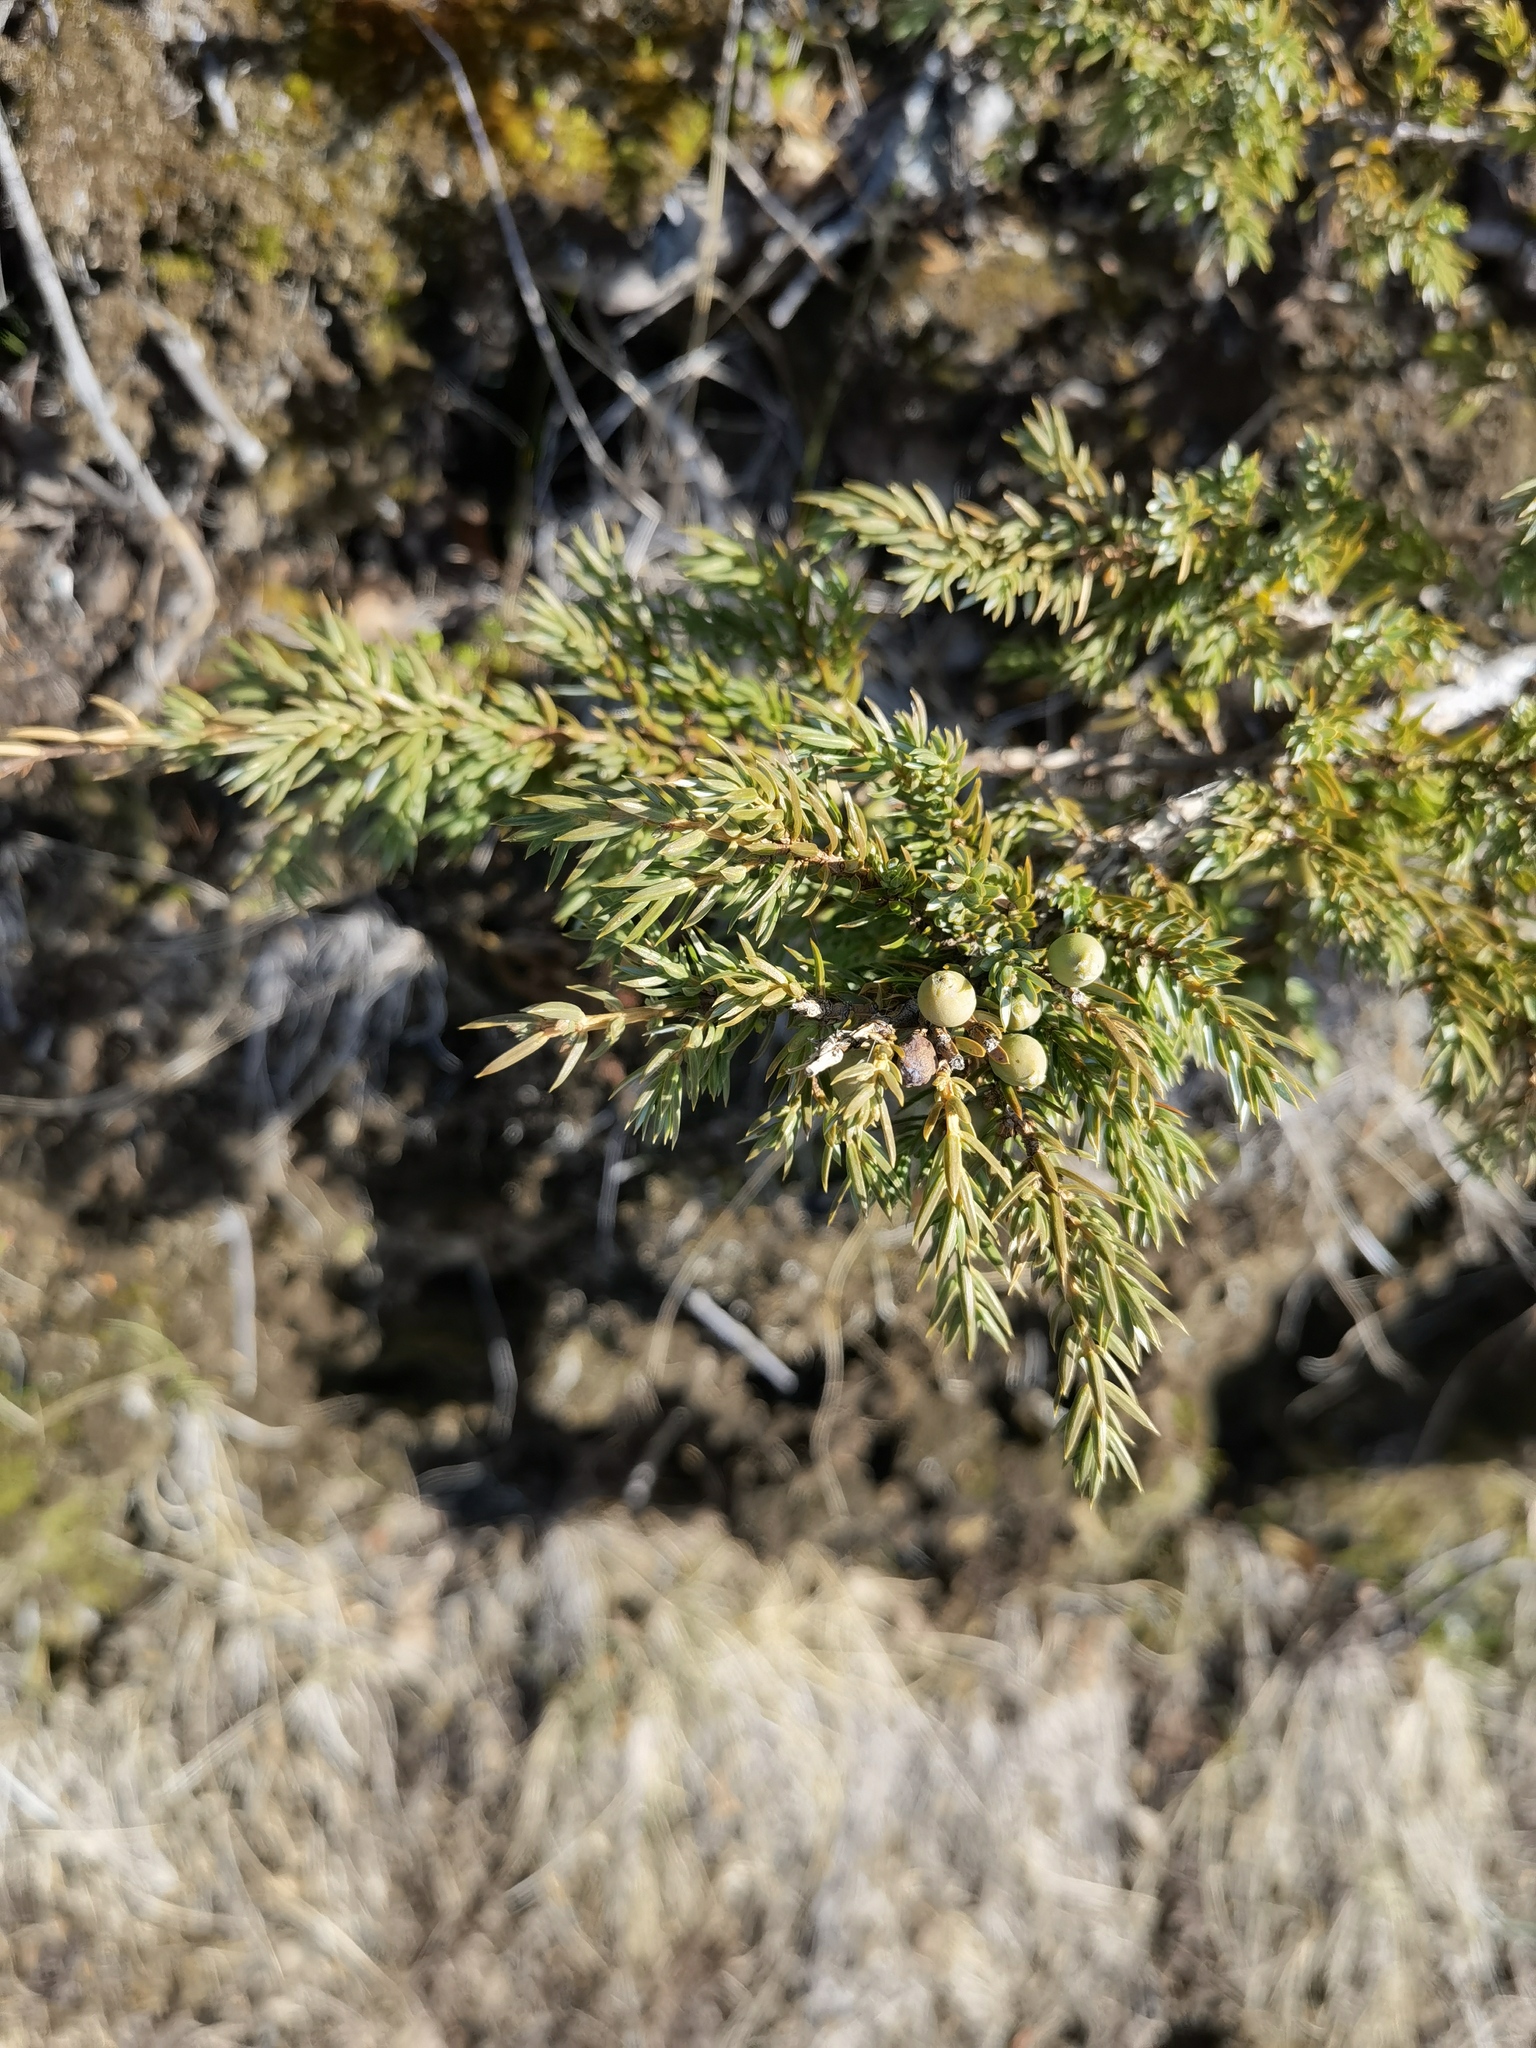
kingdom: Plantae
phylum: Tracheophyta
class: Pinopsida
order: Pinales
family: Cupressaceae
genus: Juniperus
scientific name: Juniperus communis
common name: Common juniper
